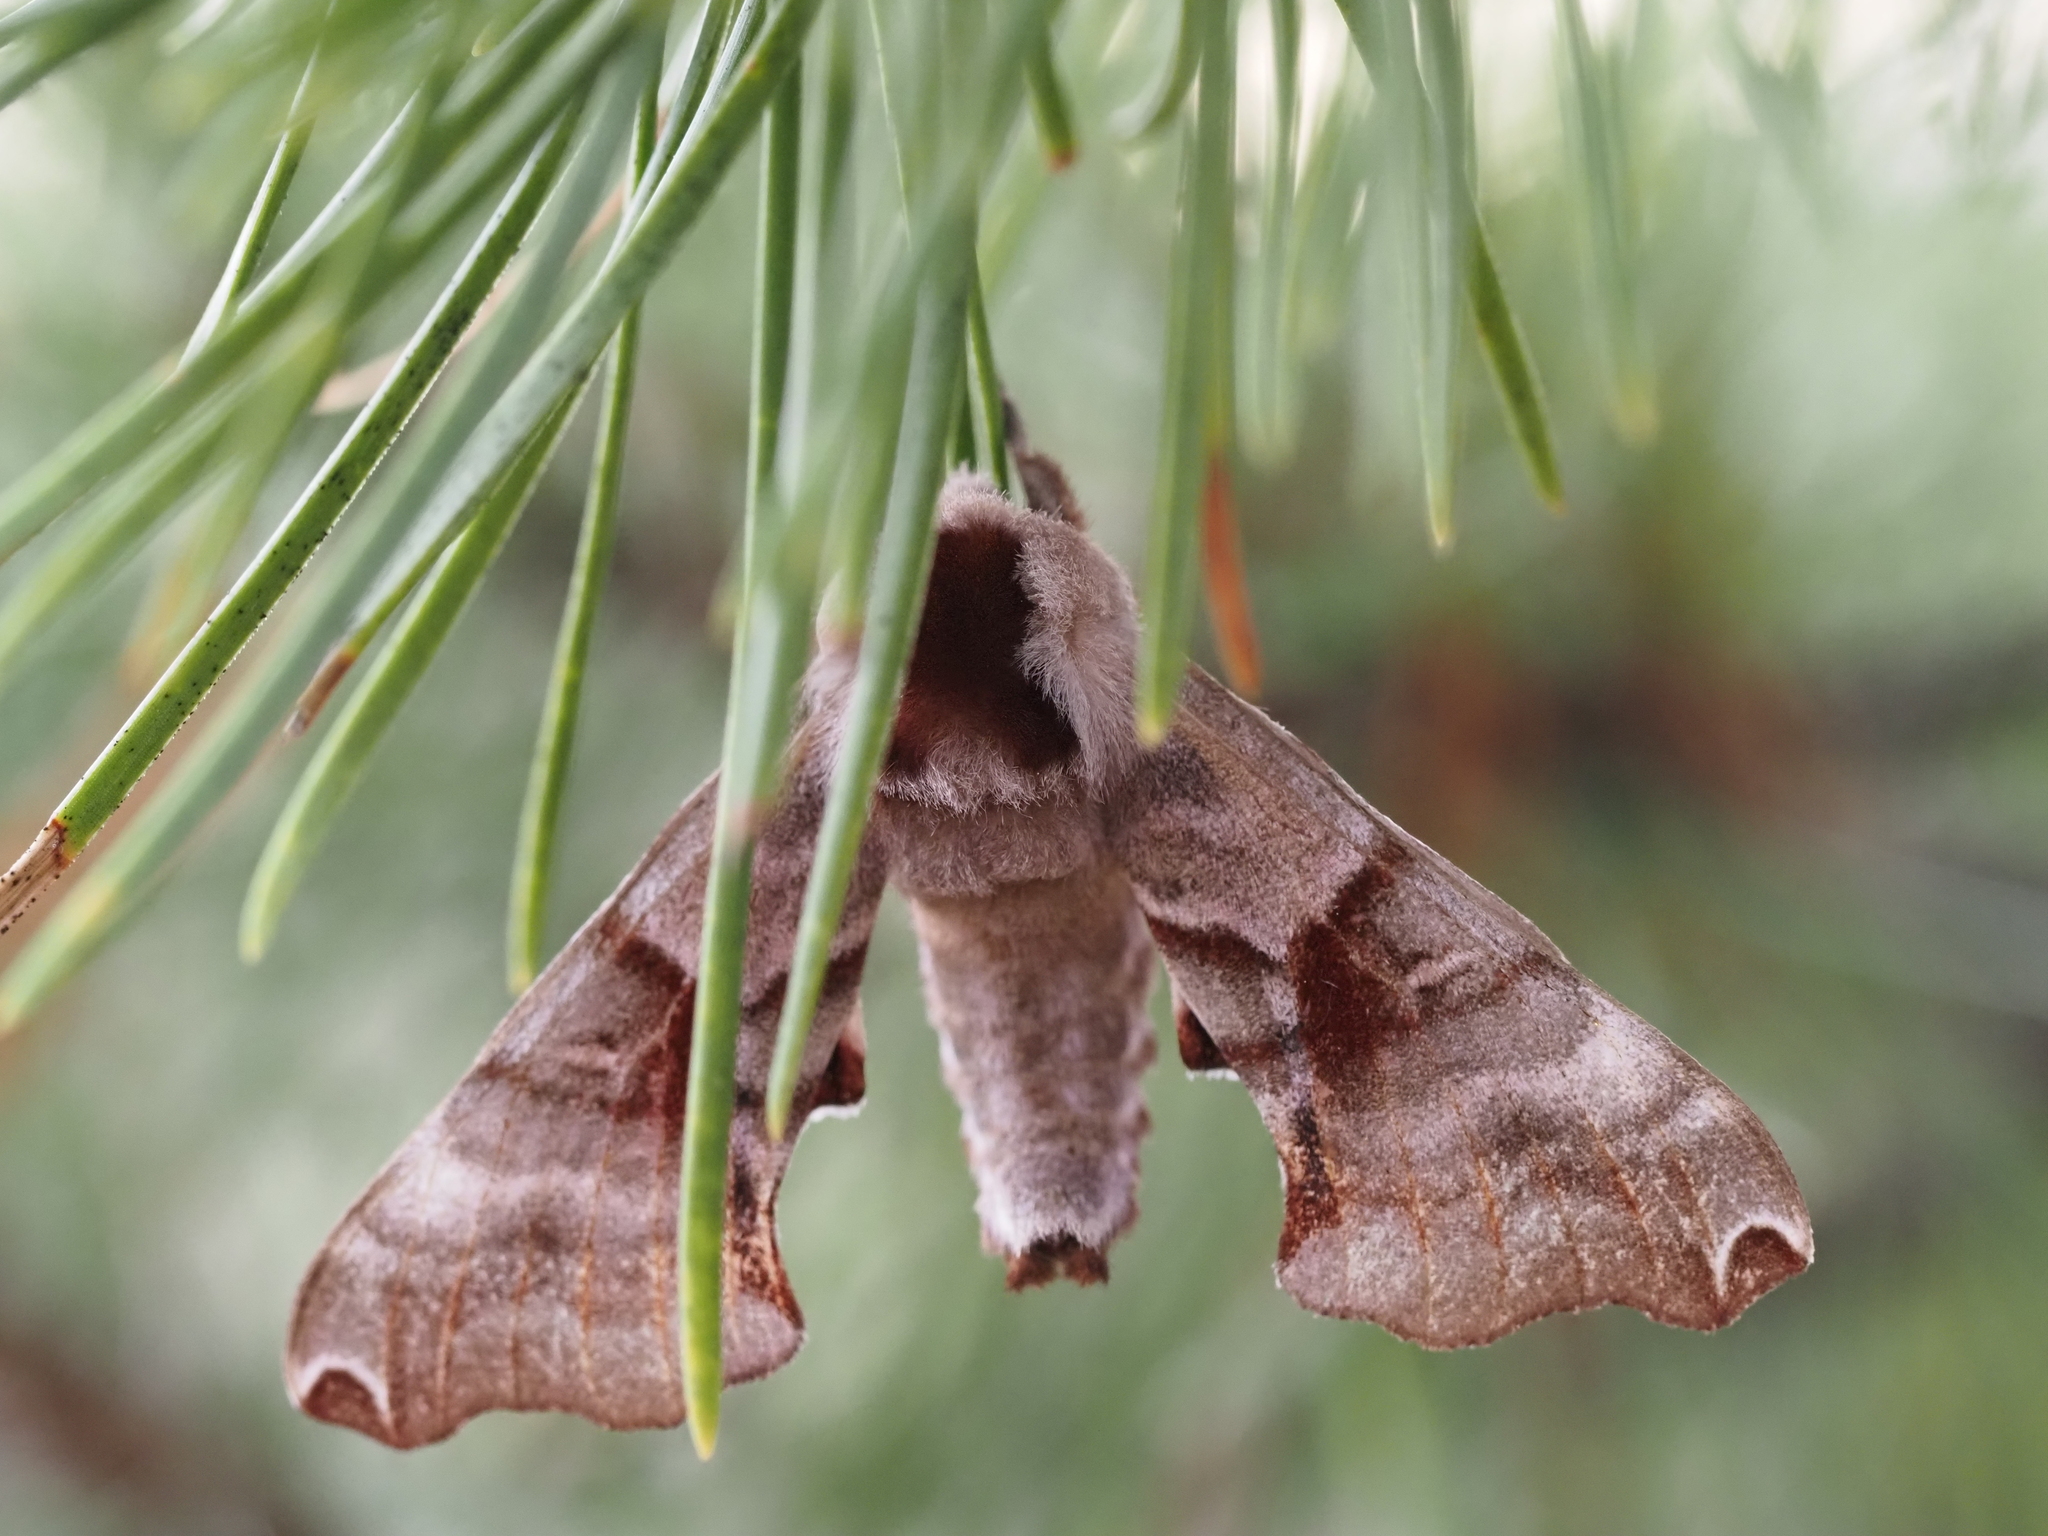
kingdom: Animalia
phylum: Arthropoda
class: Insecta
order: Lepidoptera
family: Sphingidae
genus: Smerinthus
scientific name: Smerinthus jamaicensis
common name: Twin spotted sphinx
